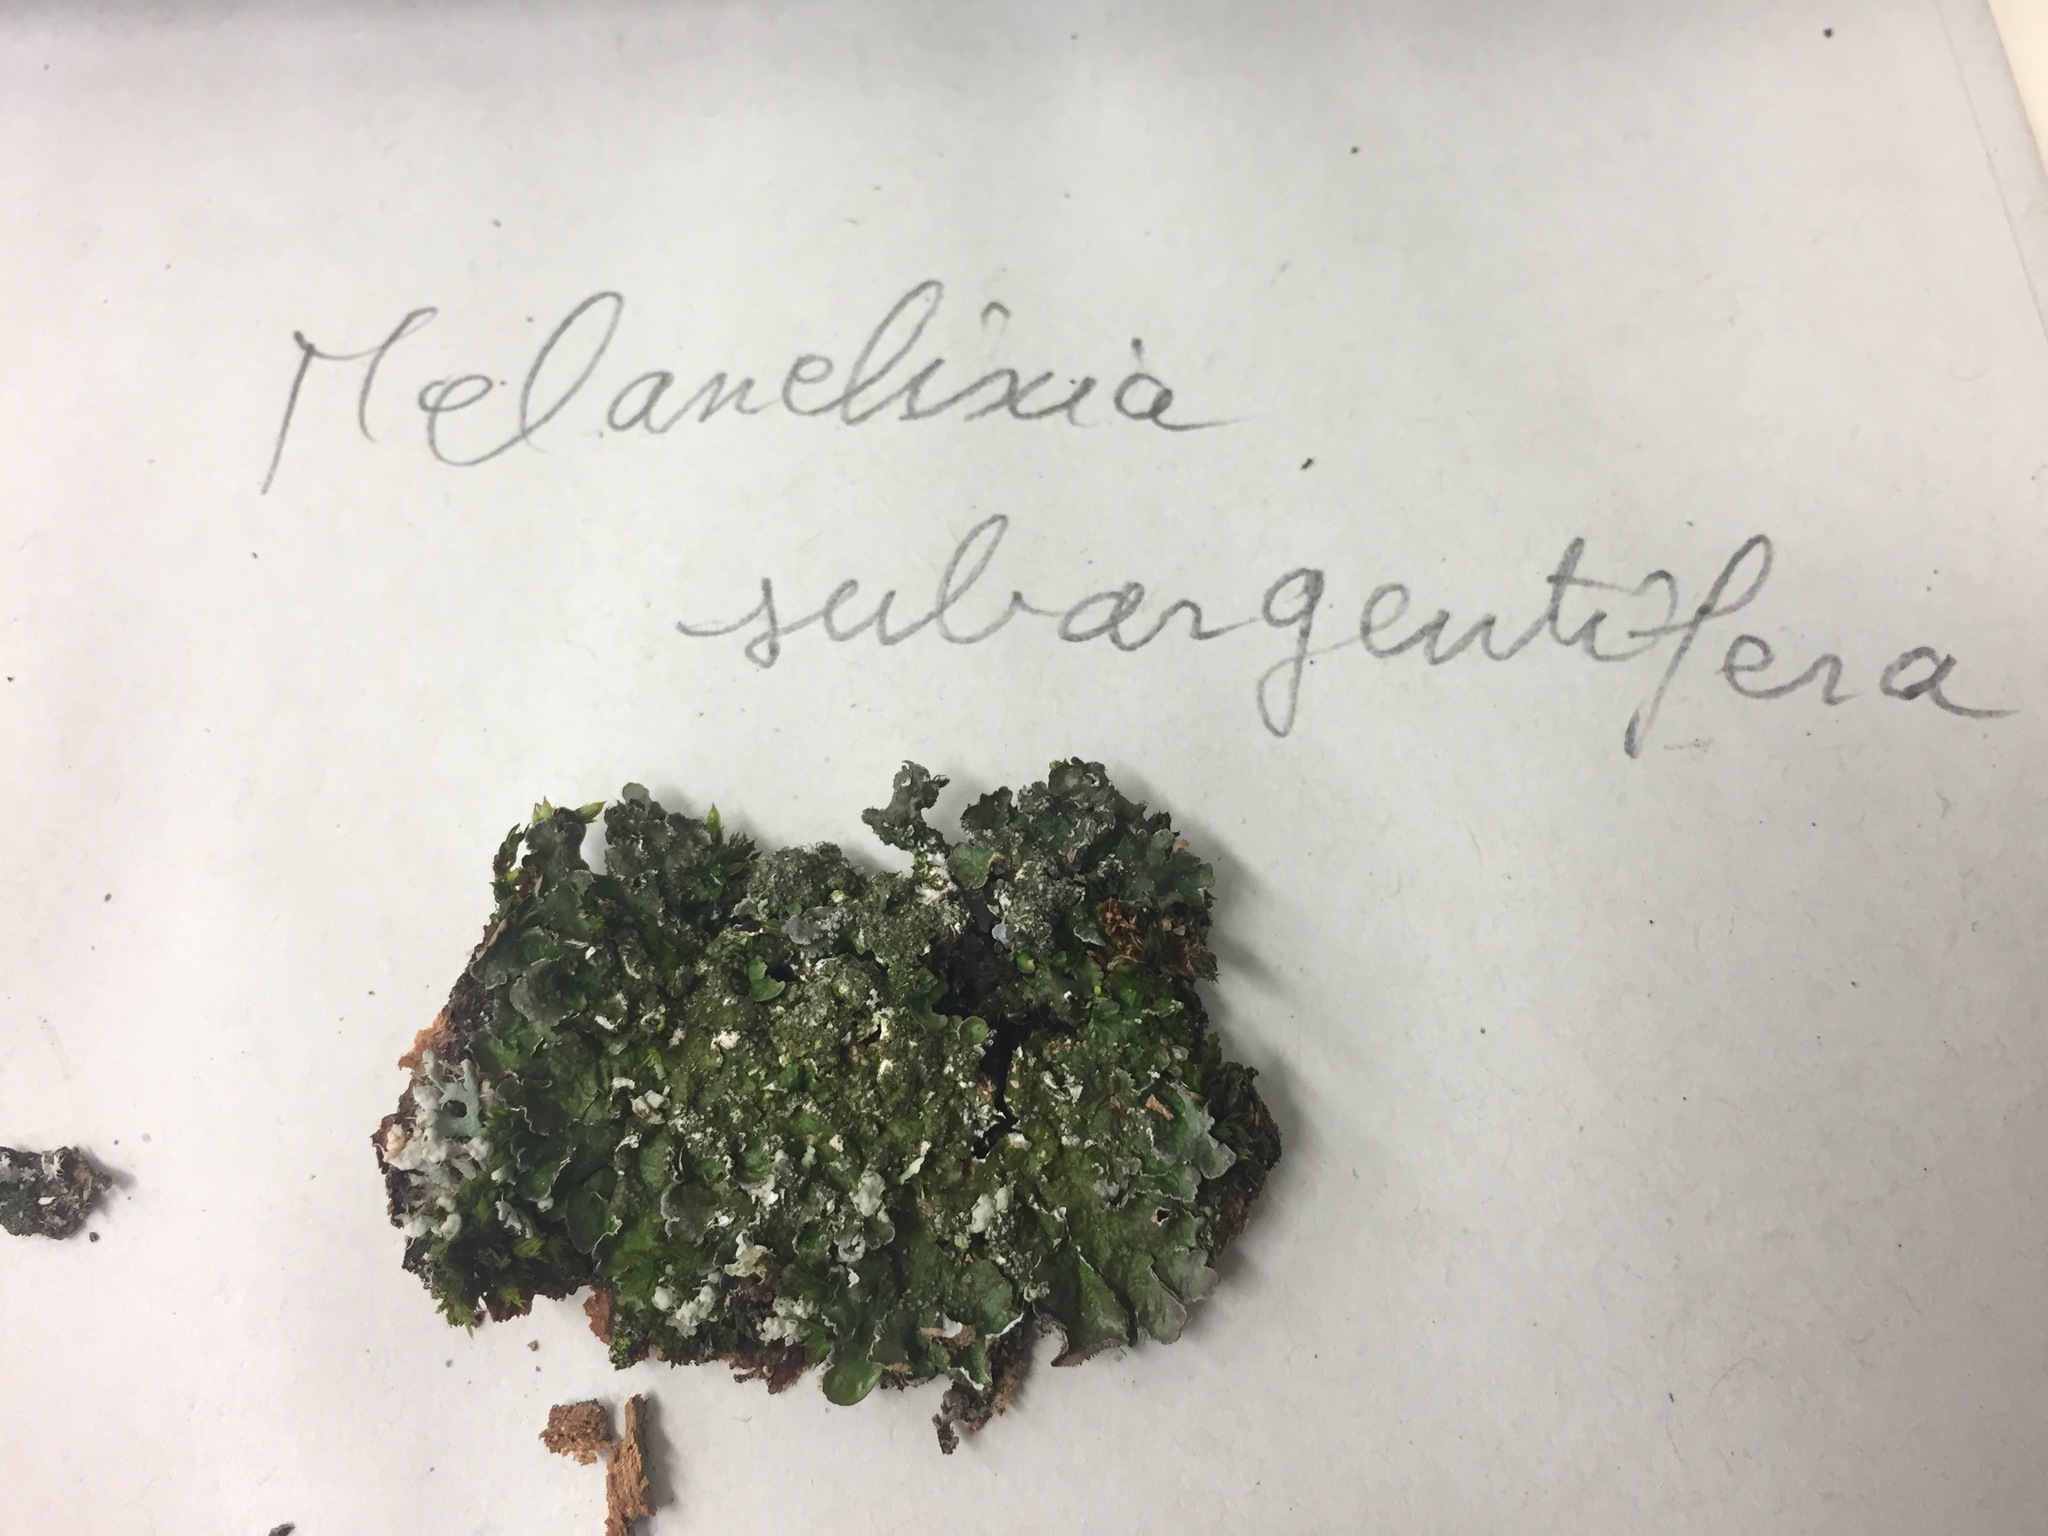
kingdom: Fungi
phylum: Ascomycota
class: Lecanoromycetes
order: Lecanorales
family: Parmeliaceae
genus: Melanelixia
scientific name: Melanelixia subargentifera
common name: Whiskered camouflage lichen
